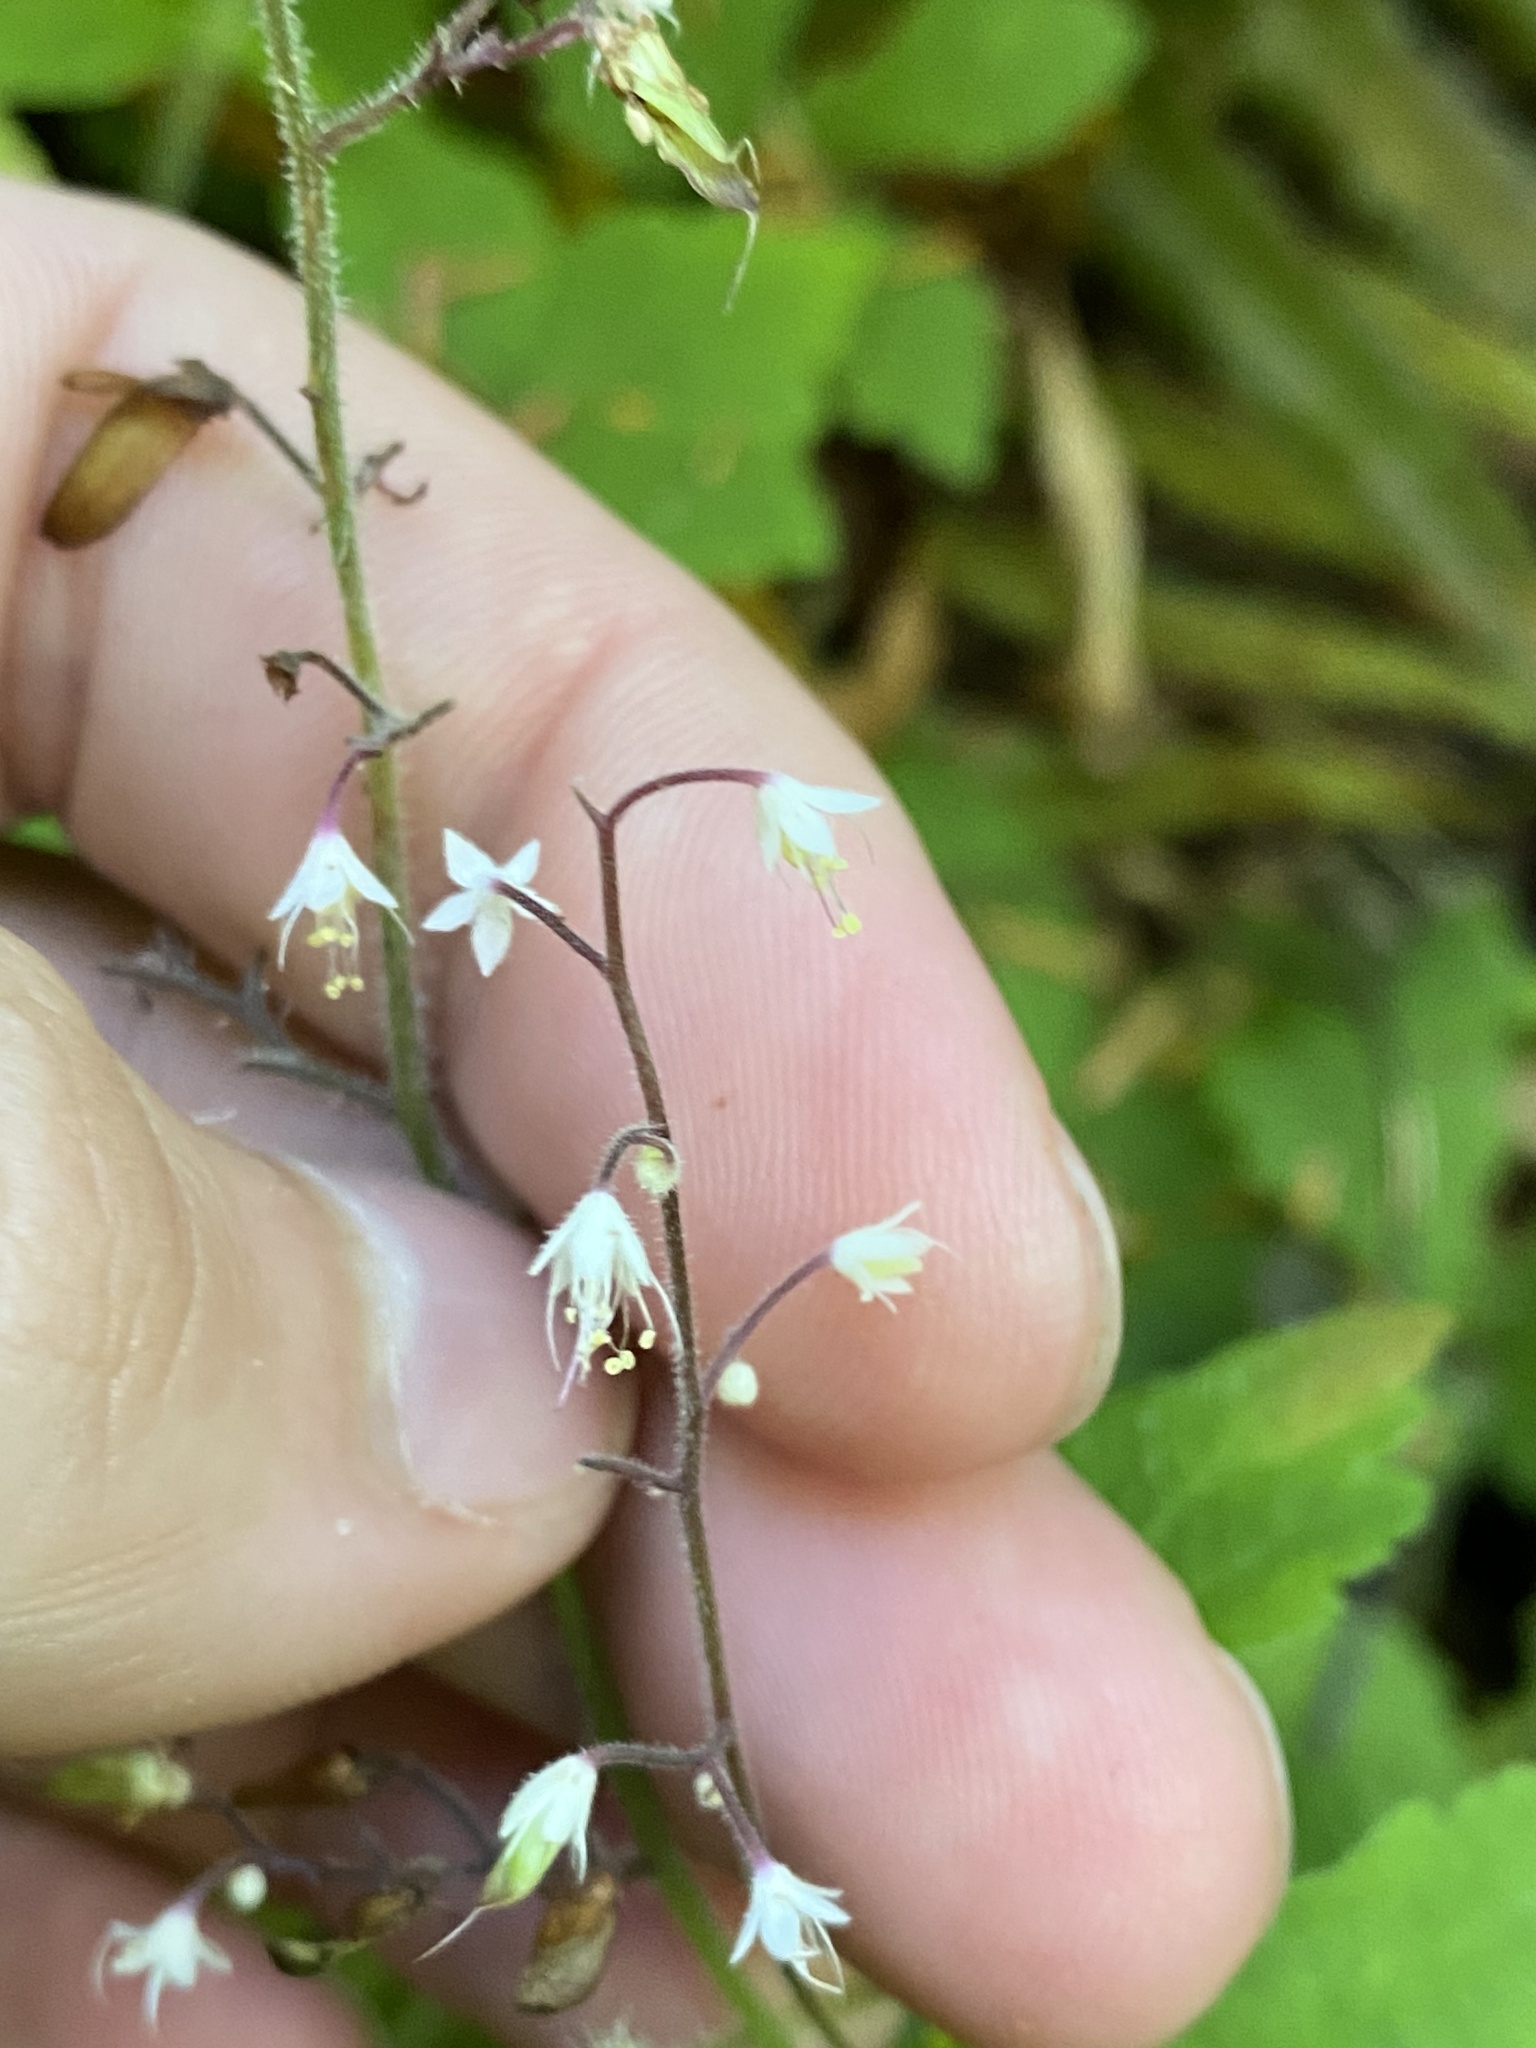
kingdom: Plantae
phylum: Tracheophyta
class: Magnoliopsida
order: Saxifragales
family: Saxifragaceae
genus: Tiarella
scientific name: Tiarella trifoliata
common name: Sugar-scoop
